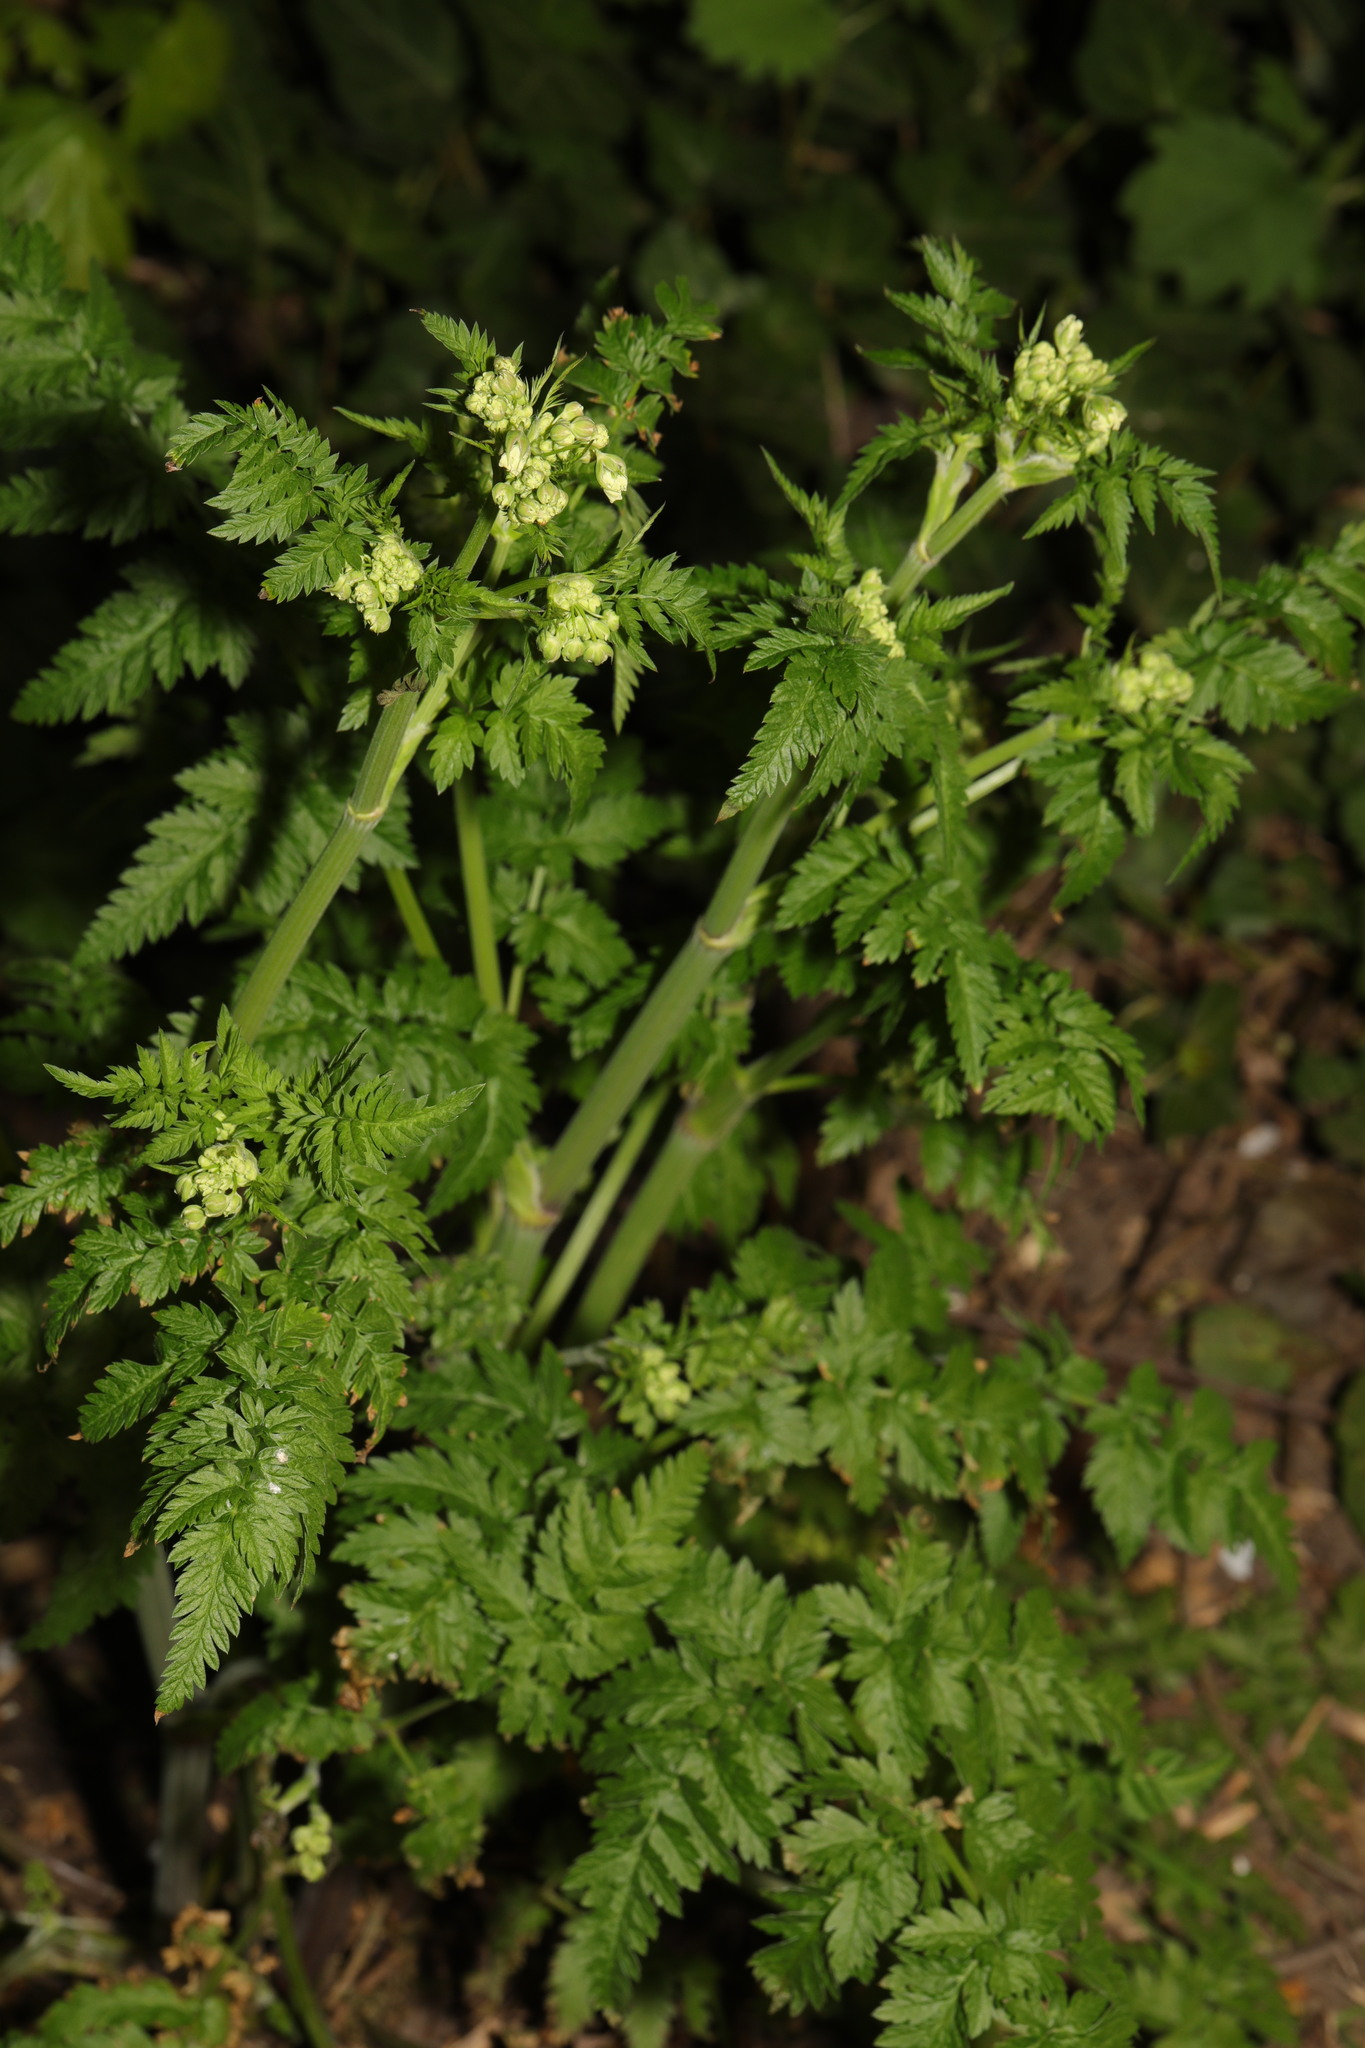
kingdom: Plantae
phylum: Tracheophyta
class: Magnoliopsida
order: Apiales
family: Apiaceae
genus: Anthriscus
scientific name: Anthriscus sylvestris
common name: Cow parsley
